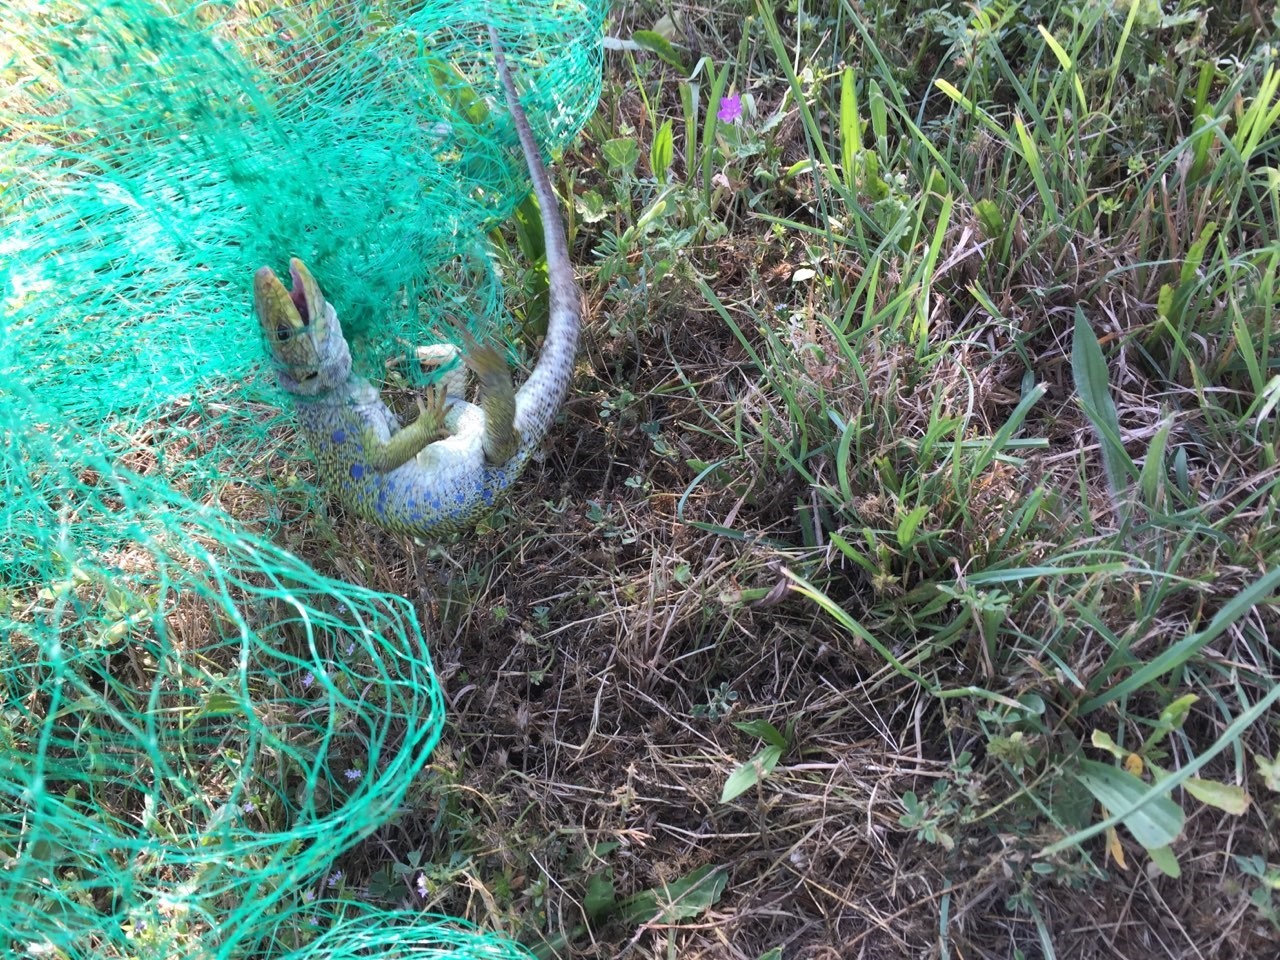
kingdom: Animalia
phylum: Chordata
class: Squamata
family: Lacertidae
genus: Timon
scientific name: Timon lepidus
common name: Ocellated lizard
